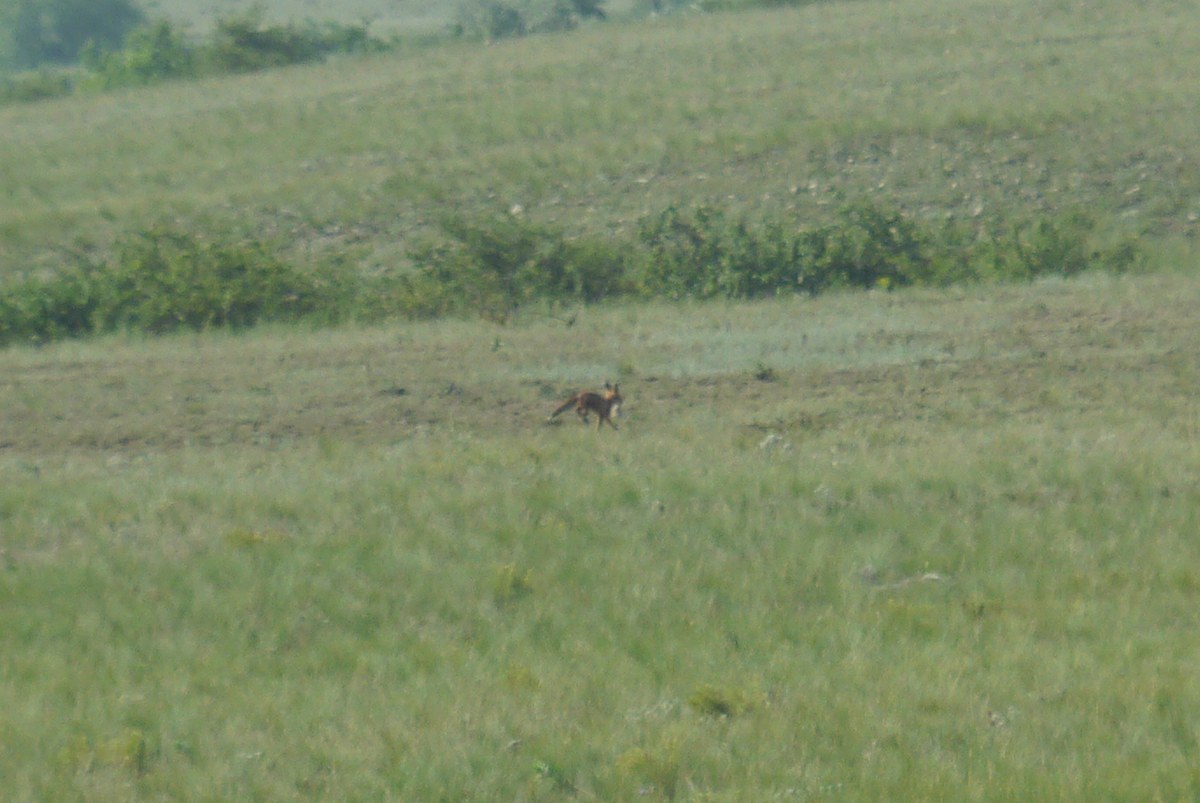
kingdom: Animalia
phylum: Chordata
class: Mammalia
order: Carnivora
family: Canidae
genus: Vulpes
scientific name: Vulpes vulpes
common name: Red fox
